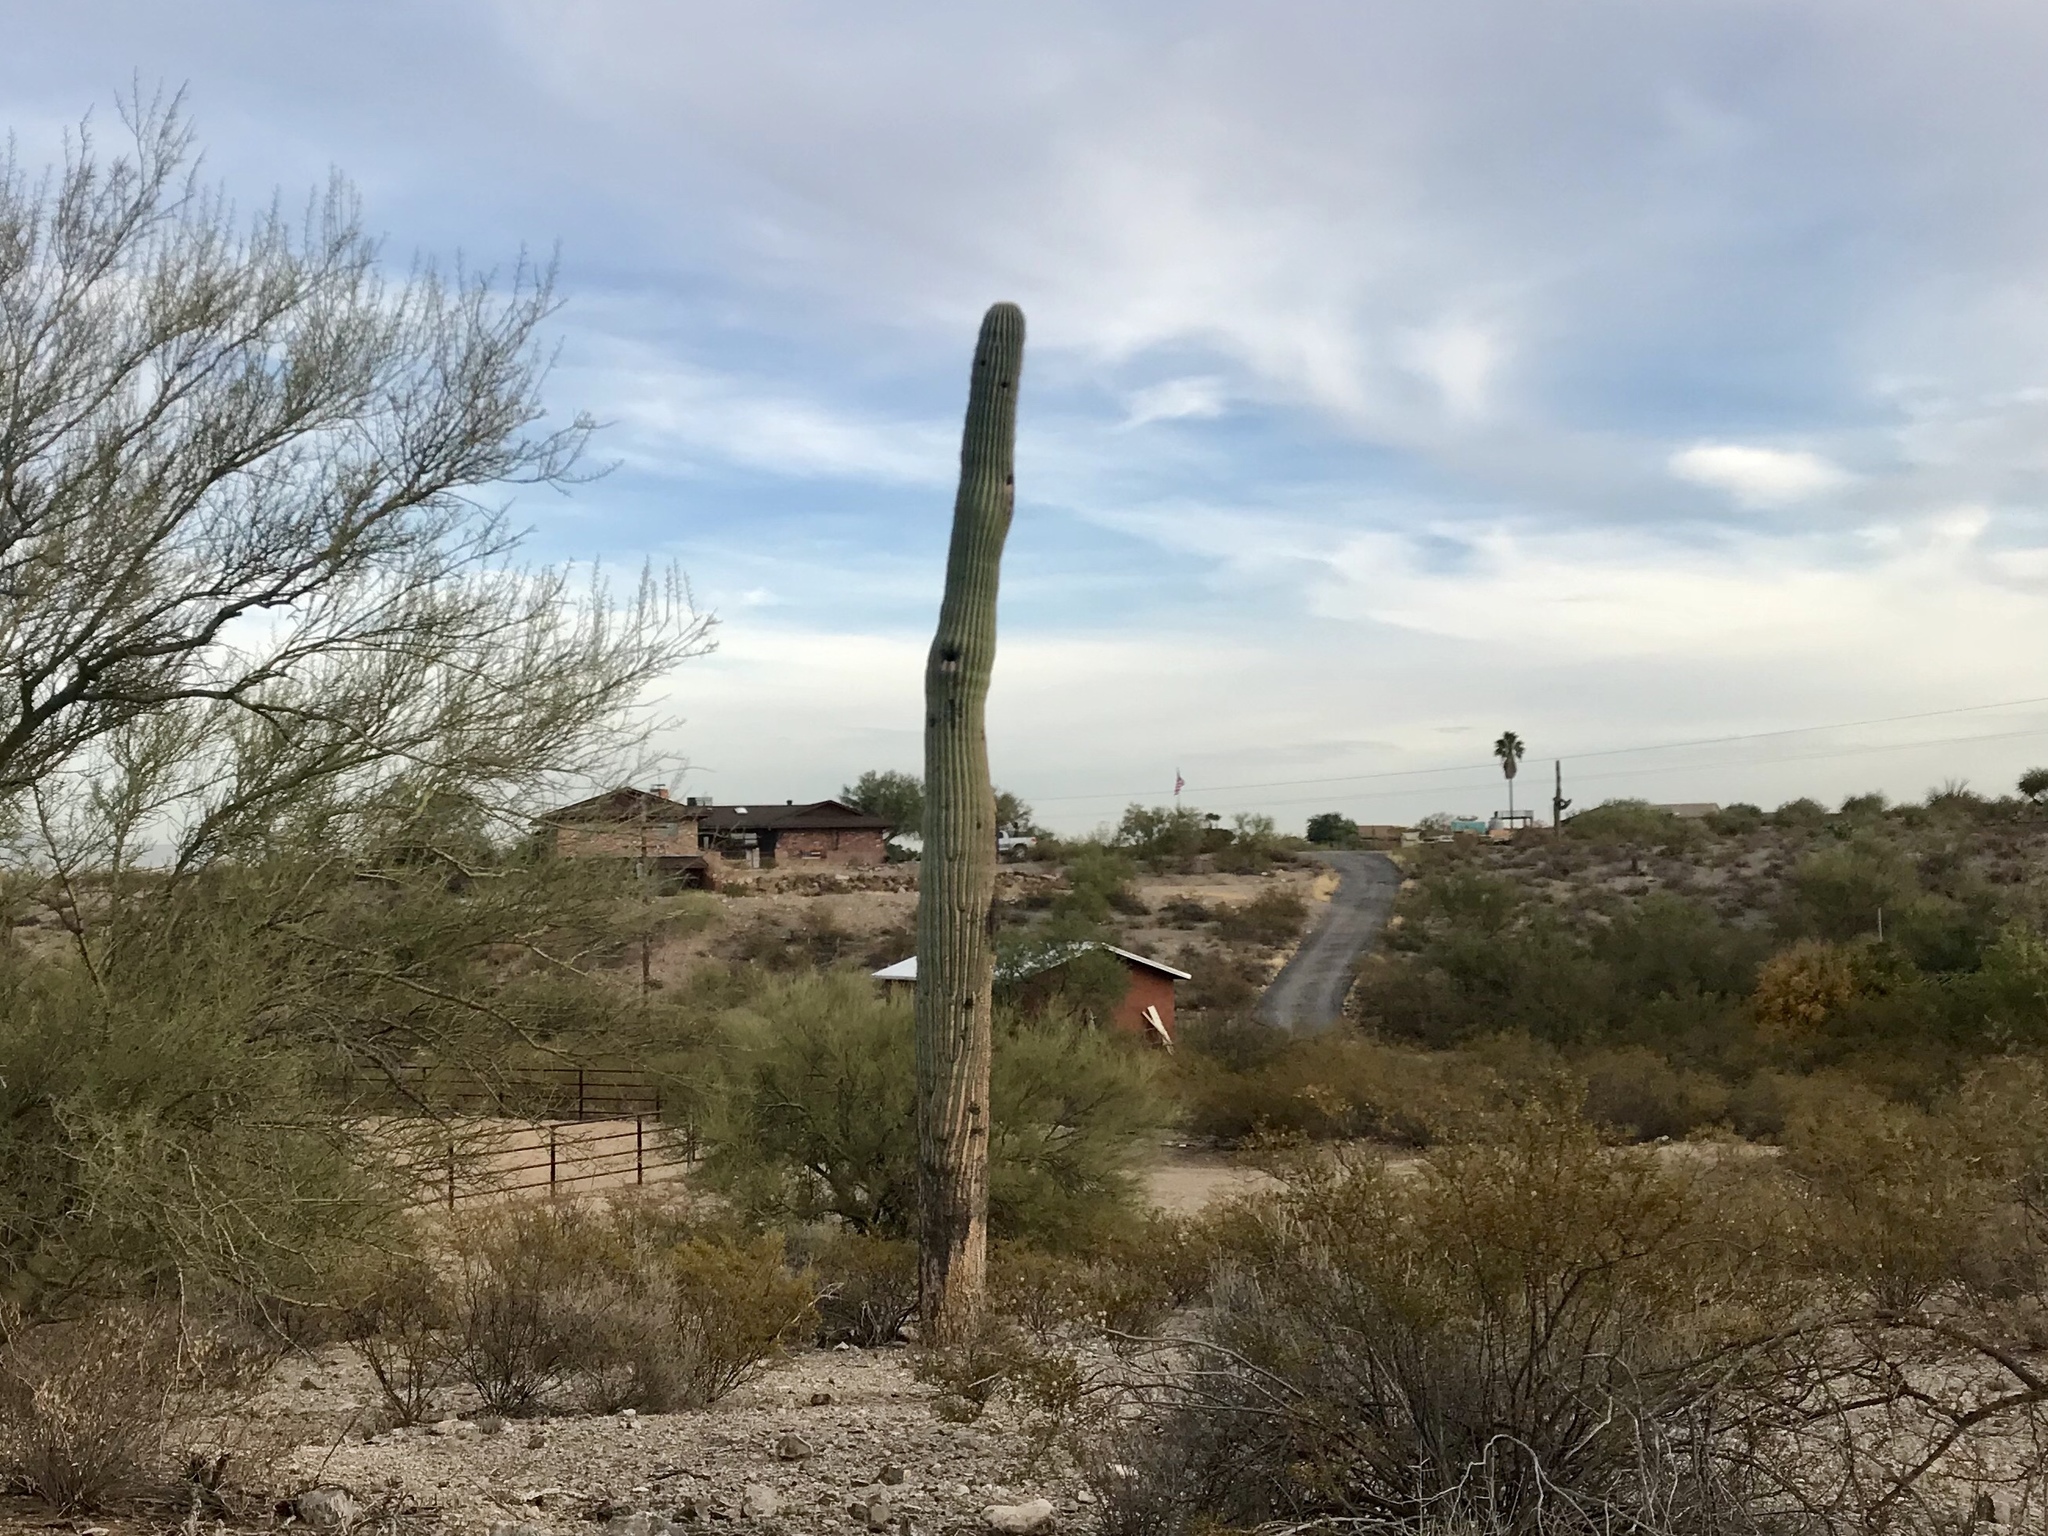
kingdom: Plantae
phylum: Tracheophyta
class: Magnoliopsida
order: Caryophyllales
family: Cactaceae
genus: Carnegiea
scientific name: Carnegiea gigantea
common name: Saguaro
